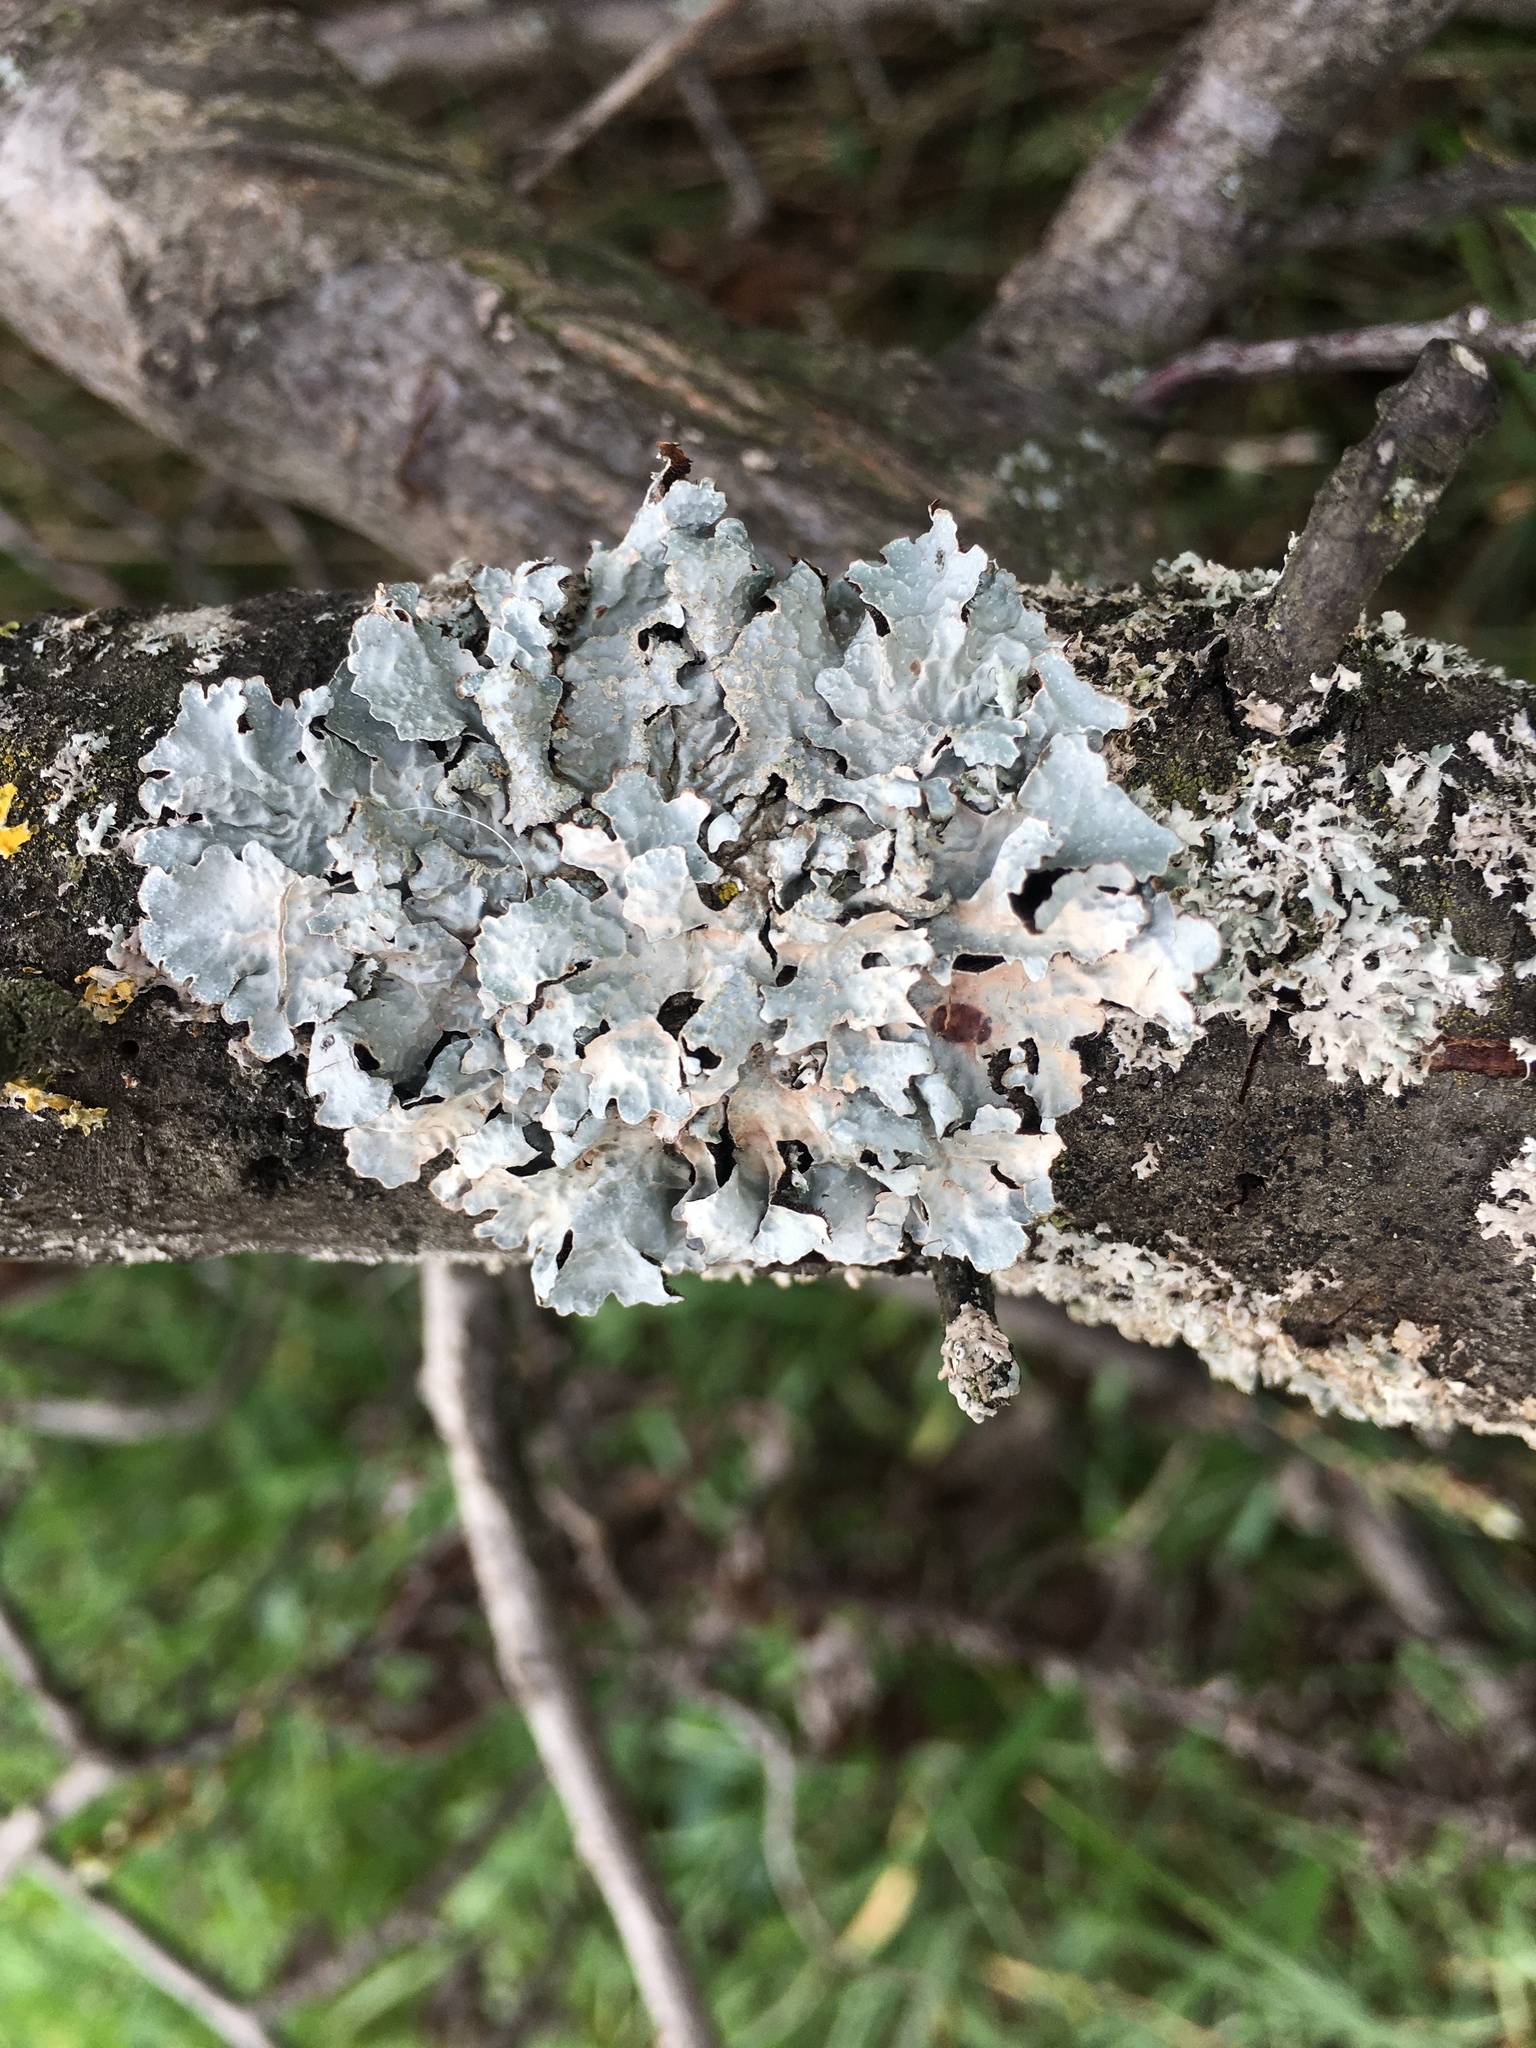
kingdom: Fungi
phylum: Ascomycota
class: Lecanoromycetes
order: Lecanorales
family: Parmeliaceae
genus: Parmelia
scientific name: Parmelia sulcata
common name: Netted shield lichen
